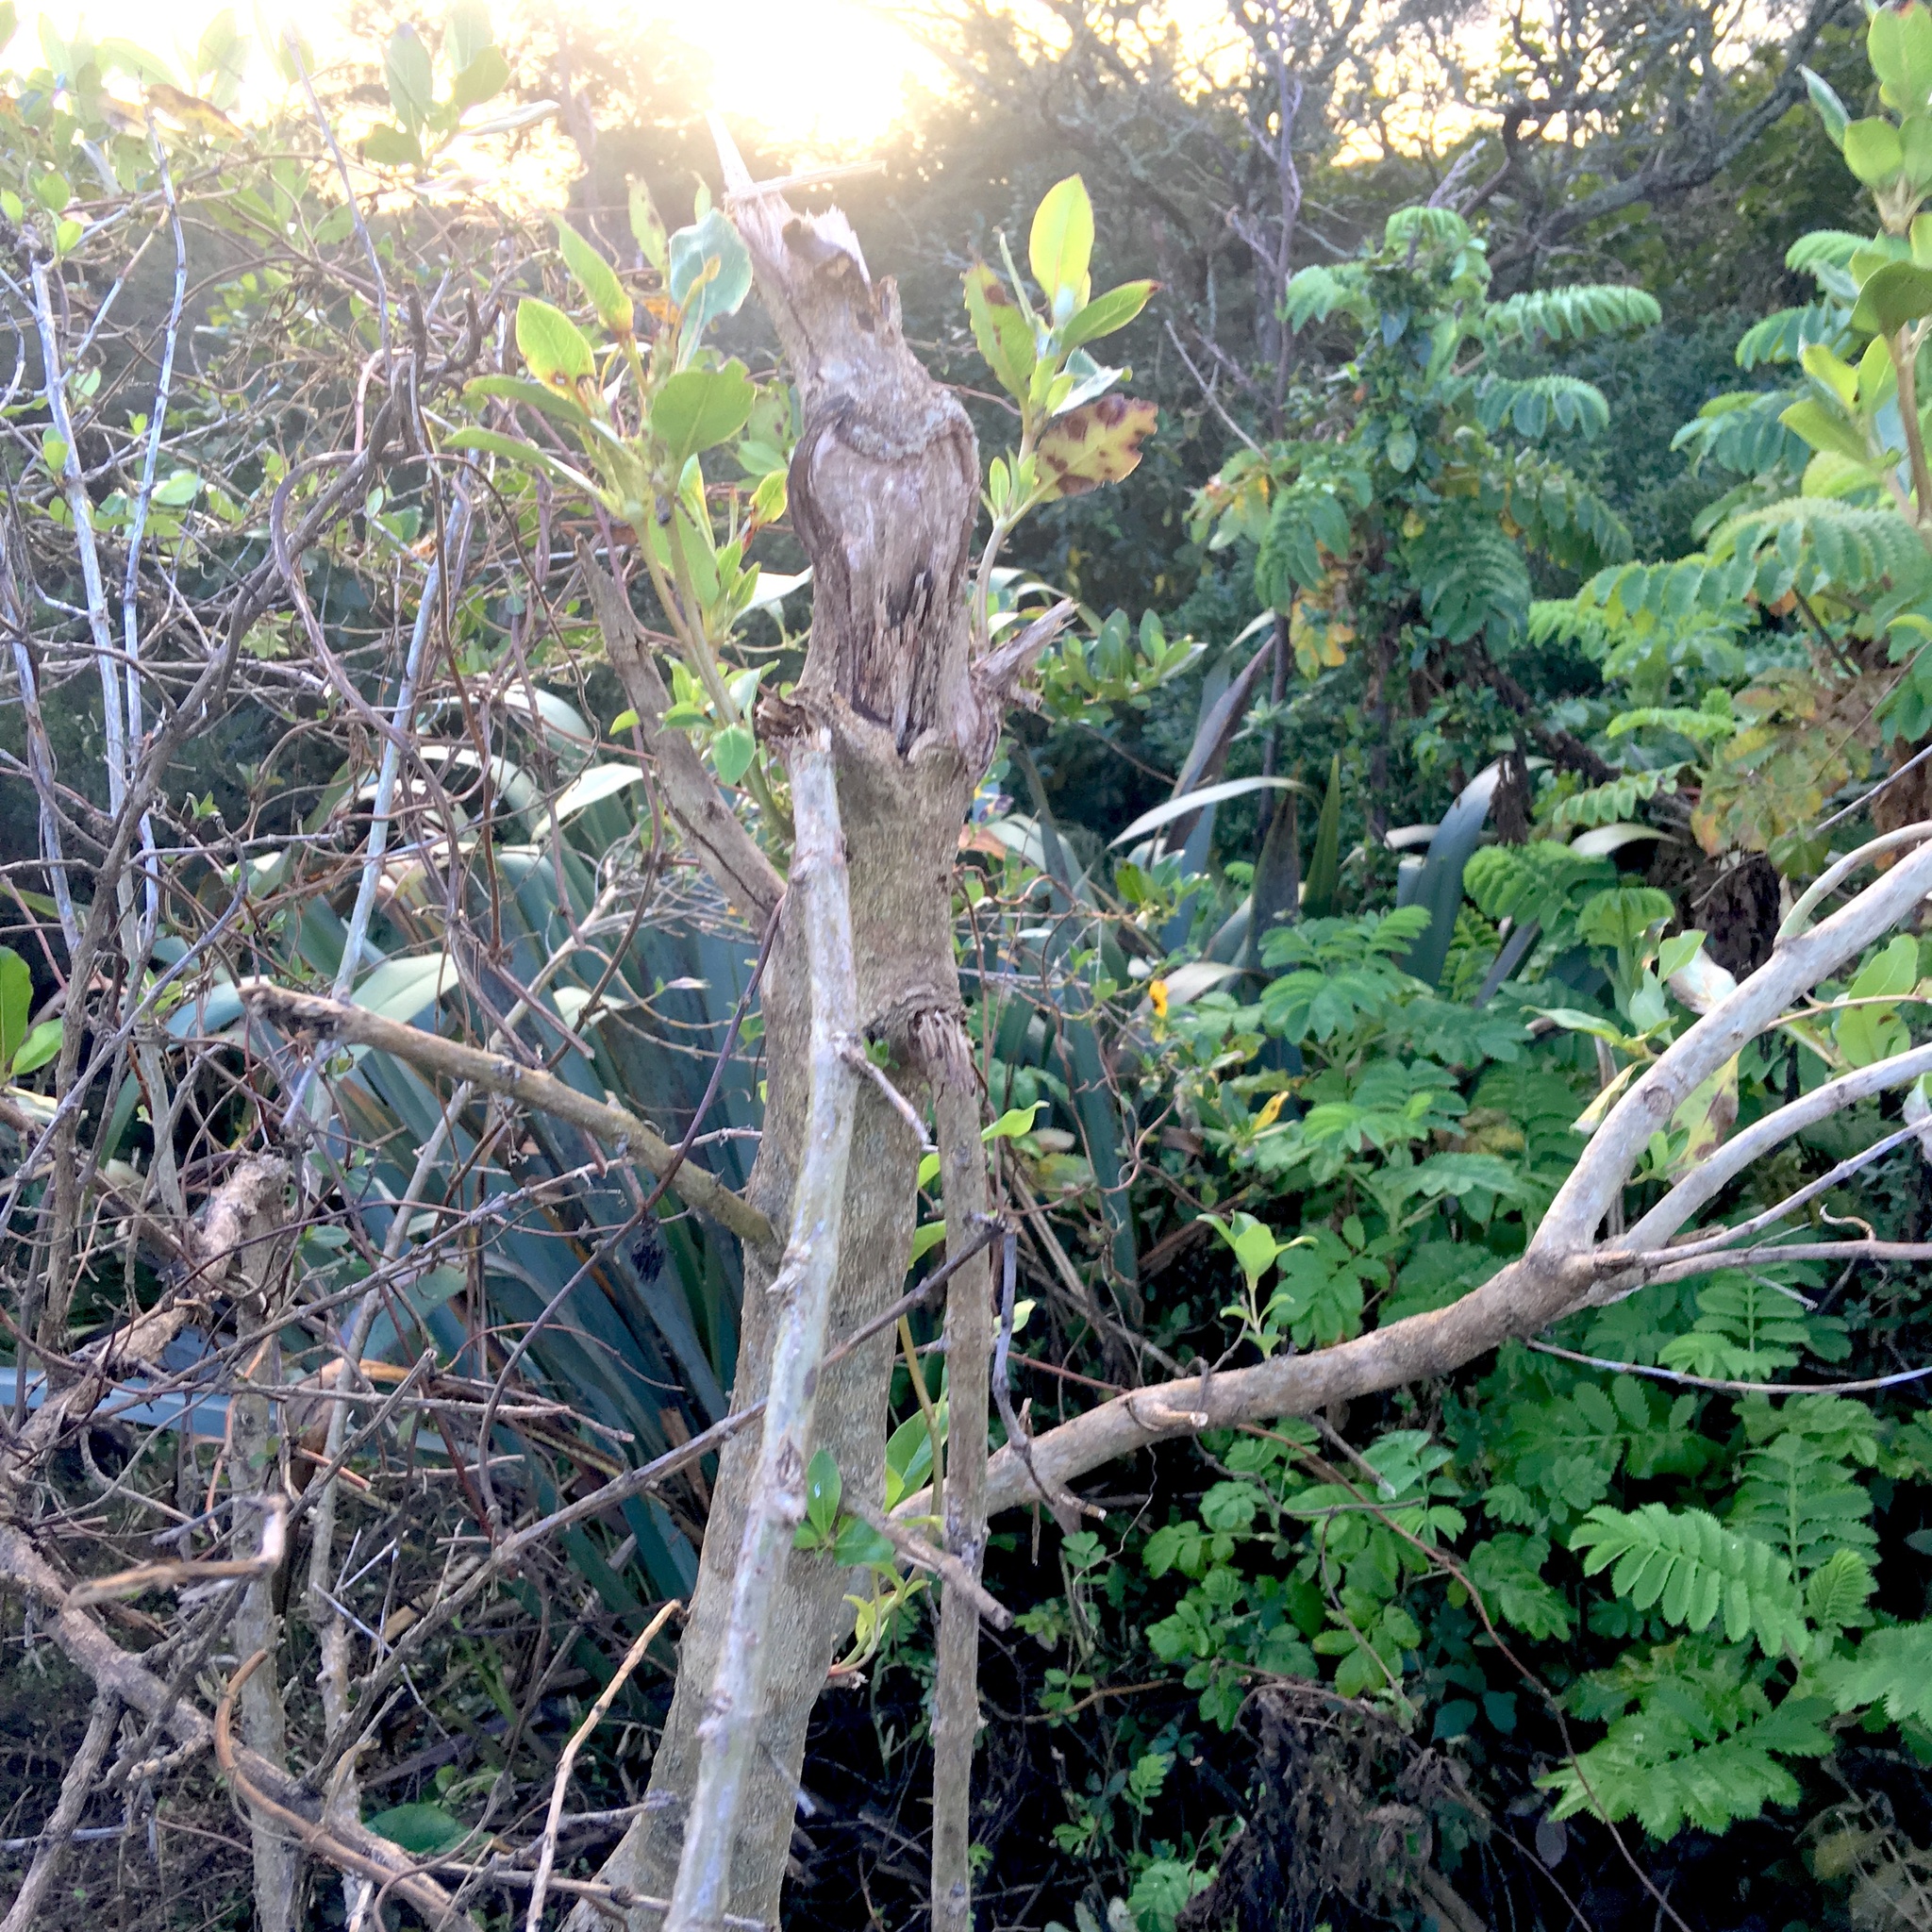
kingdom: Plantae
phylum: Tracheophyta
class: Magnoliopsida
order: Geraniales
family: Melianthaceae
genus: Melianthus
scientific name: Melianthus major
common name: Honey-flower
